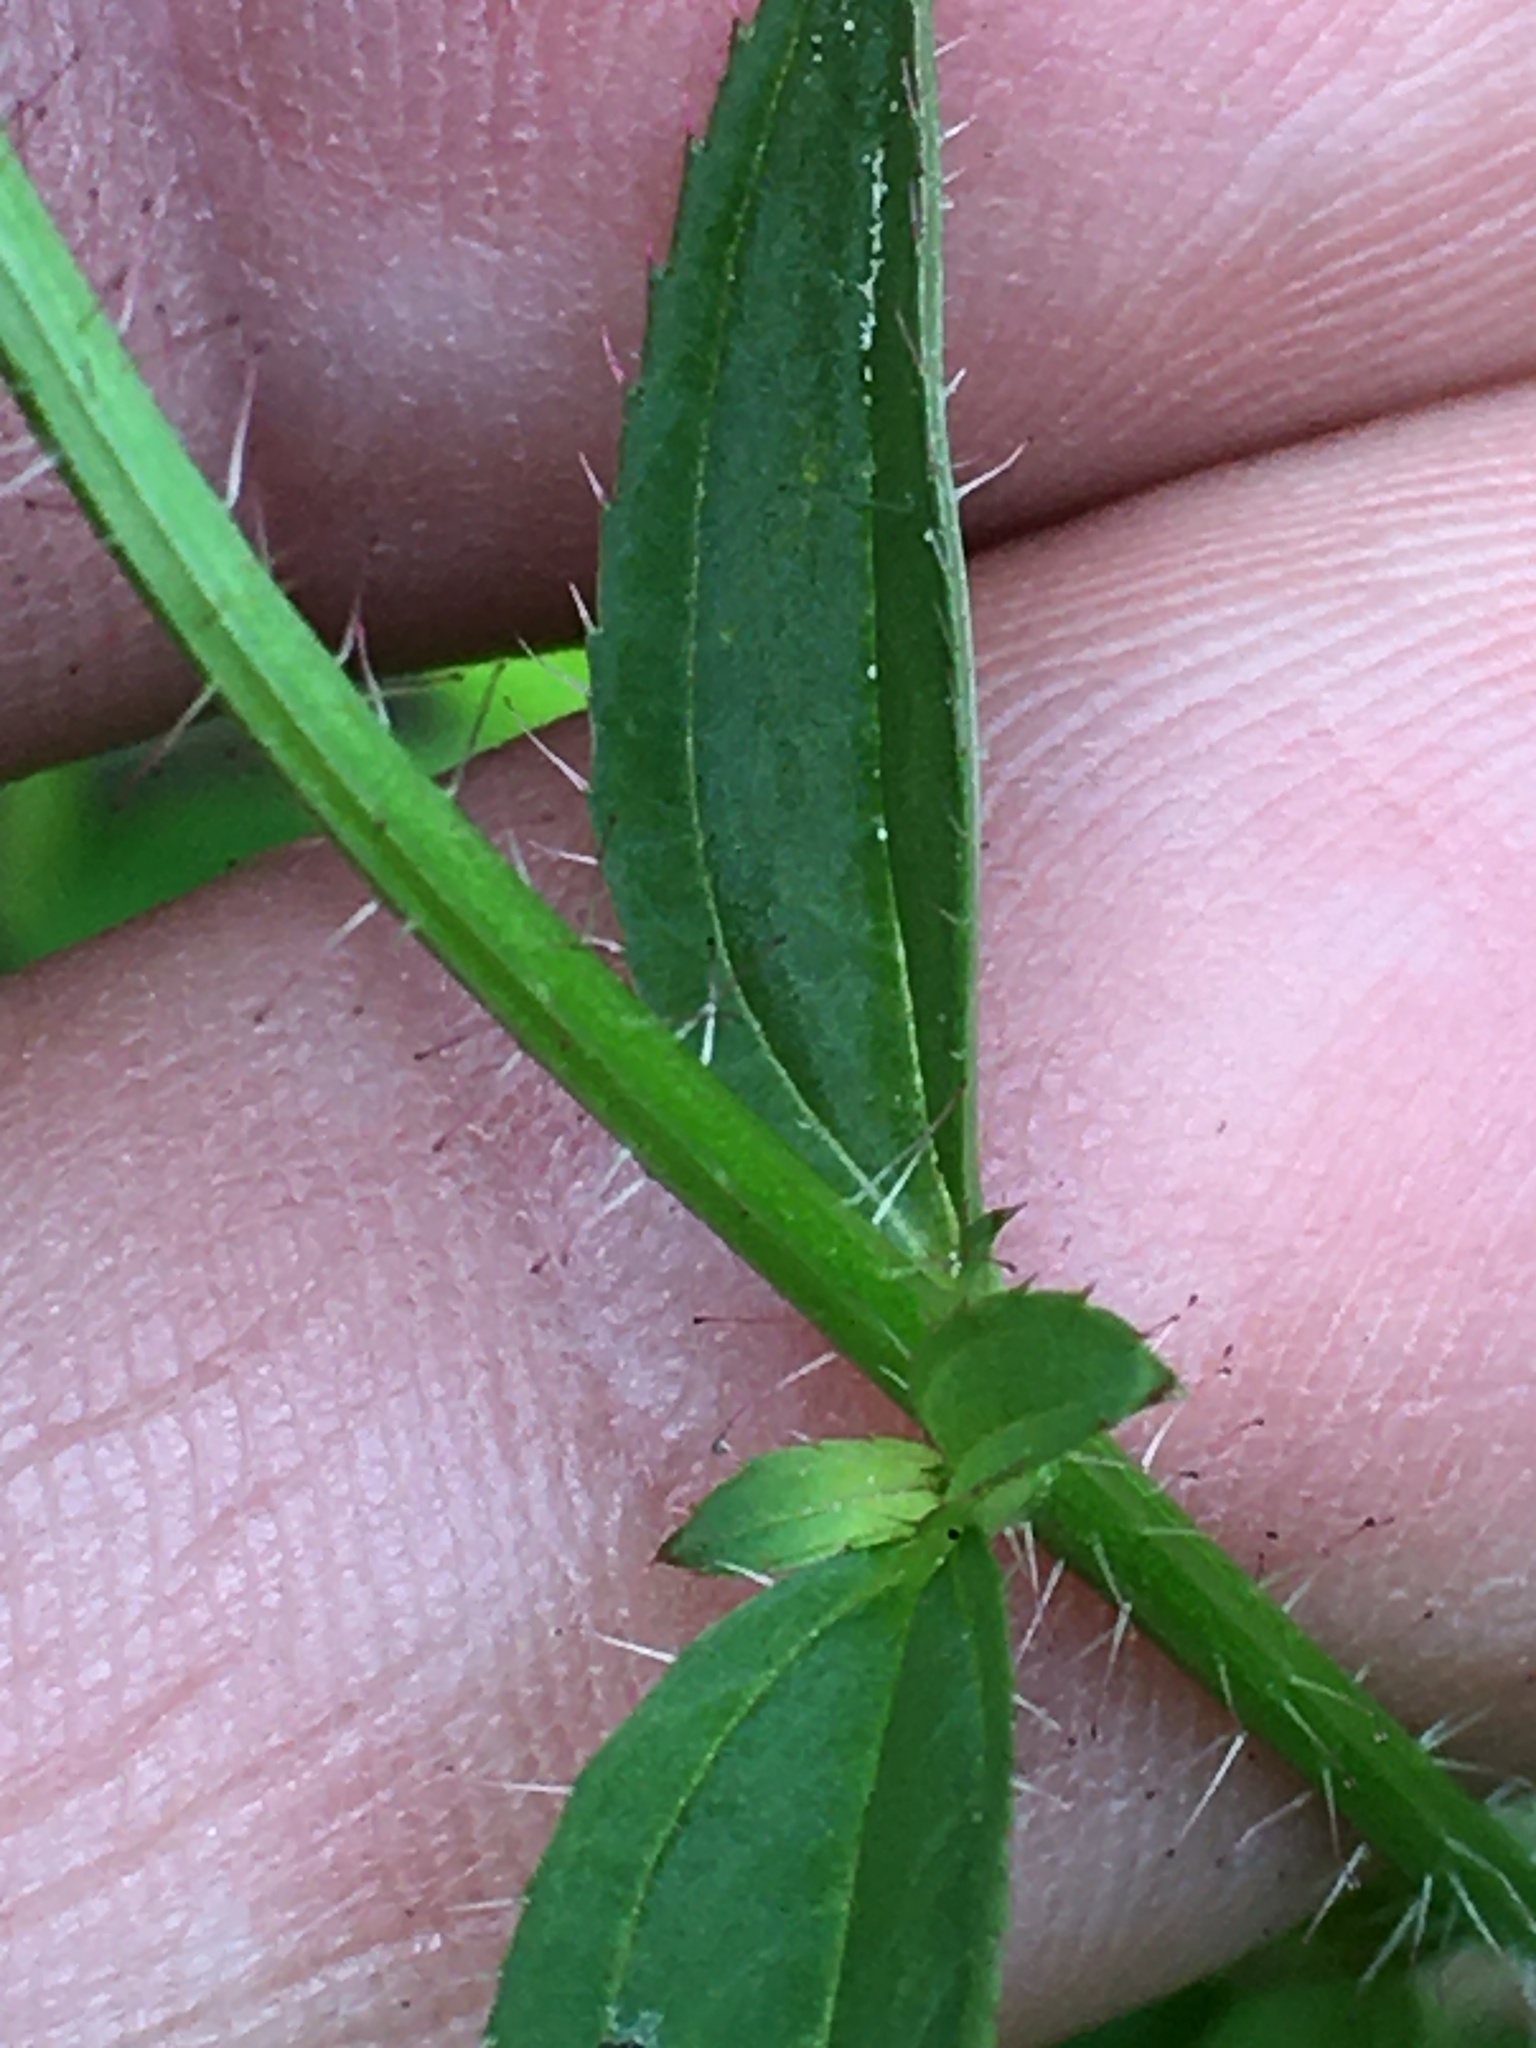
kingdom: Plantae
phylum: Tracheophyta
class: Magnoliopsida
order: Myrtales
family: Melastomataceae
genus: Rhexia
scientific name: Rhexia mariana
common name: Dull meadow-pitcher
